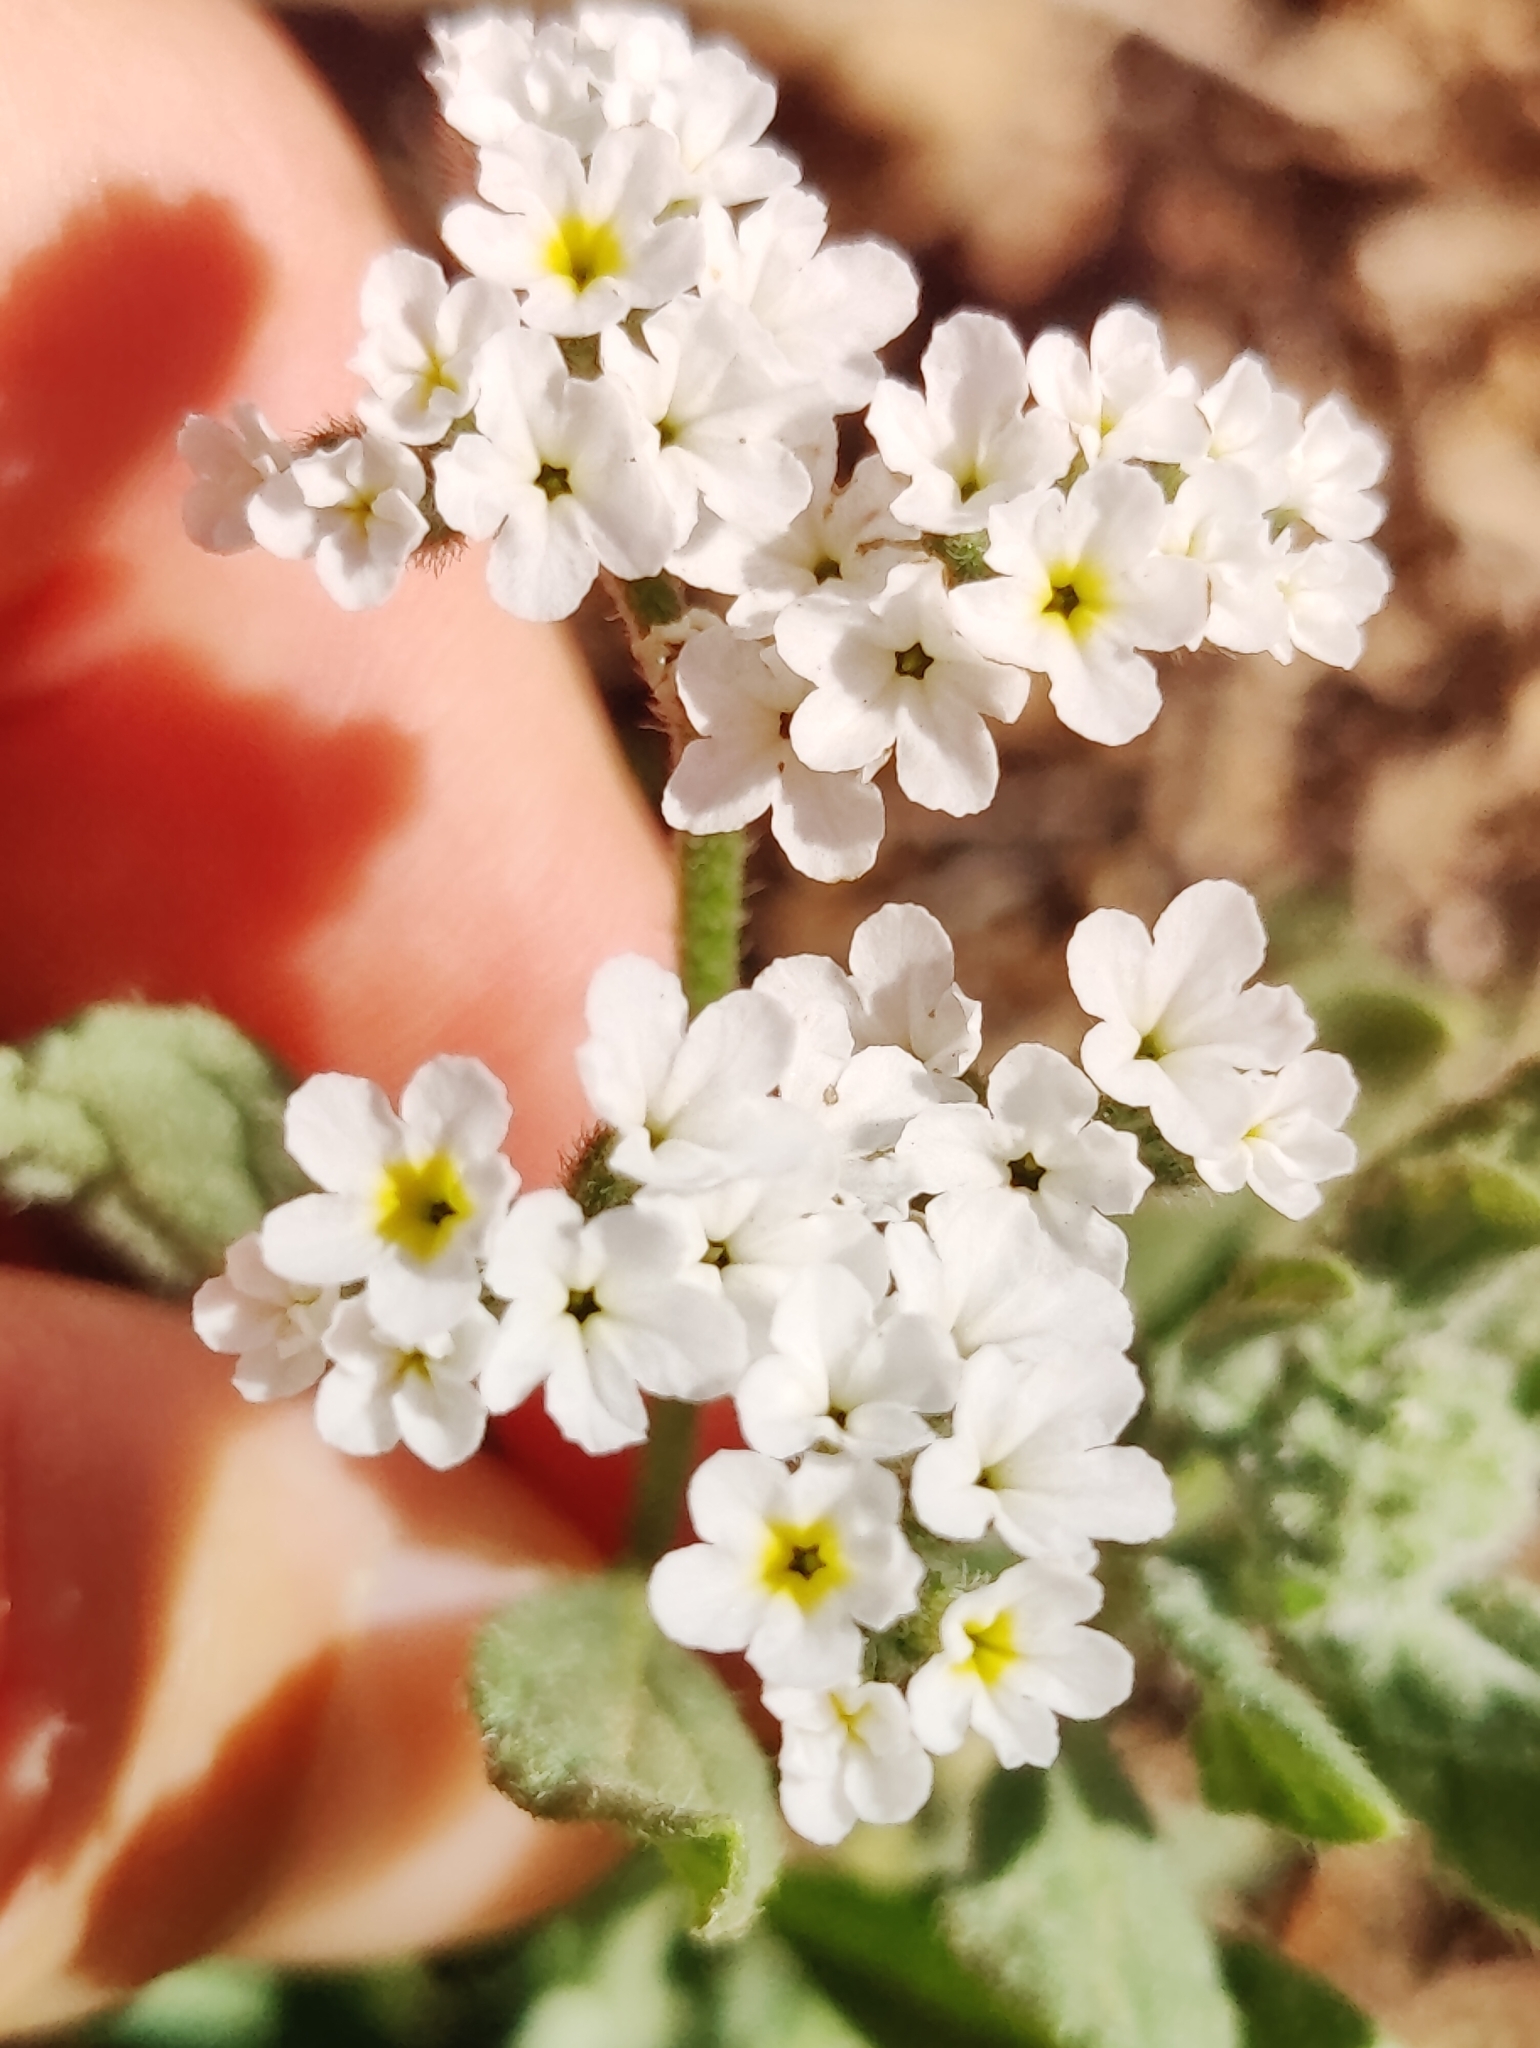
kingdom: Plantae
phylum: Tracheophyta
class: Magnoliopsida
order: Boraginales
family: Heliotropiaceae
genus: Heliotropium
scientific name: Heliotropium ramosissimum
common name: Wavy heliotrope
